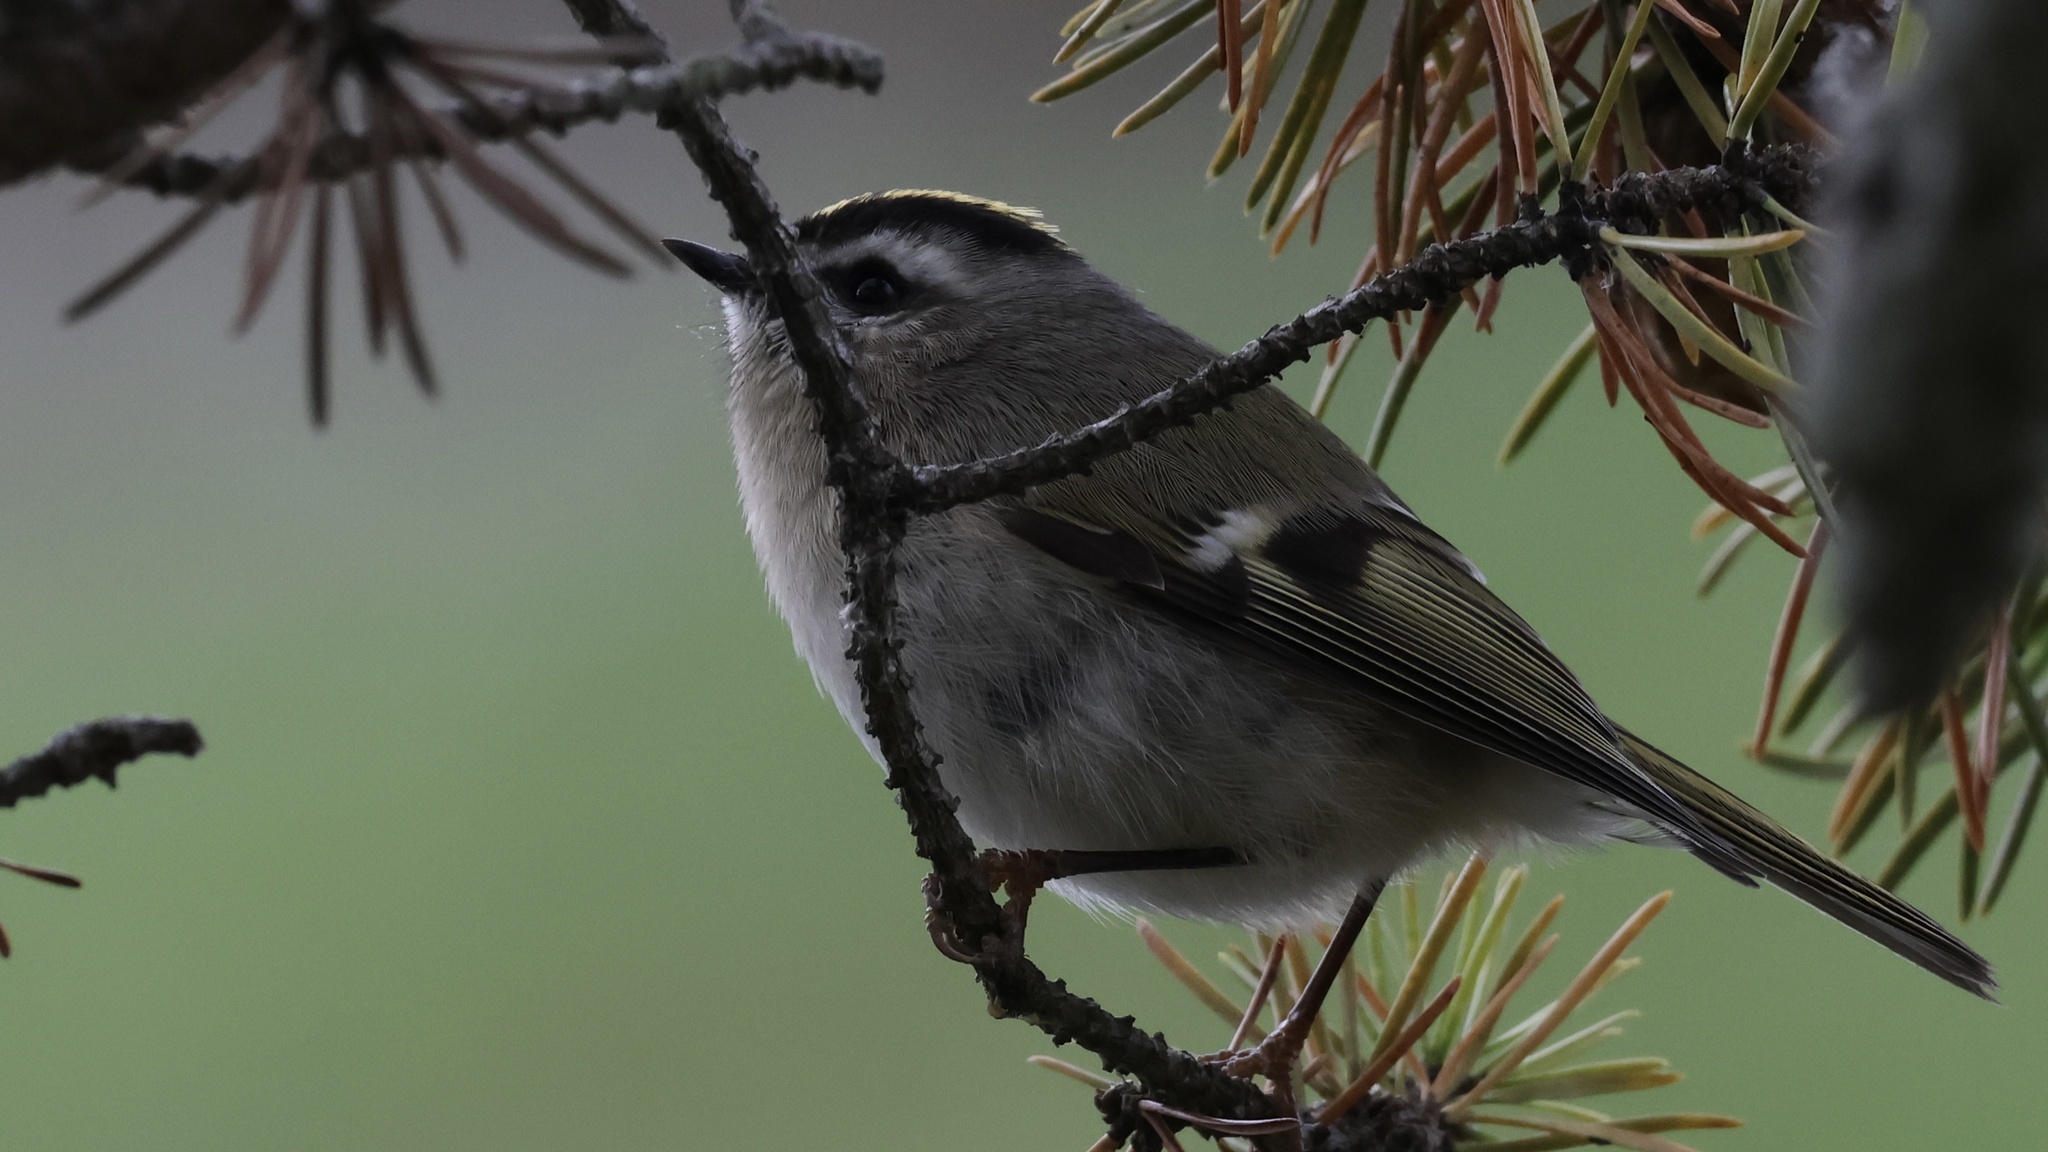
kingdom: Animalia
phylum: Chordata
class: Aves
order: Passeriformes
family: Regulidae
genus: Regulus
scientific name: Regulus satrapa
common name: Golden-crowned kinglet
